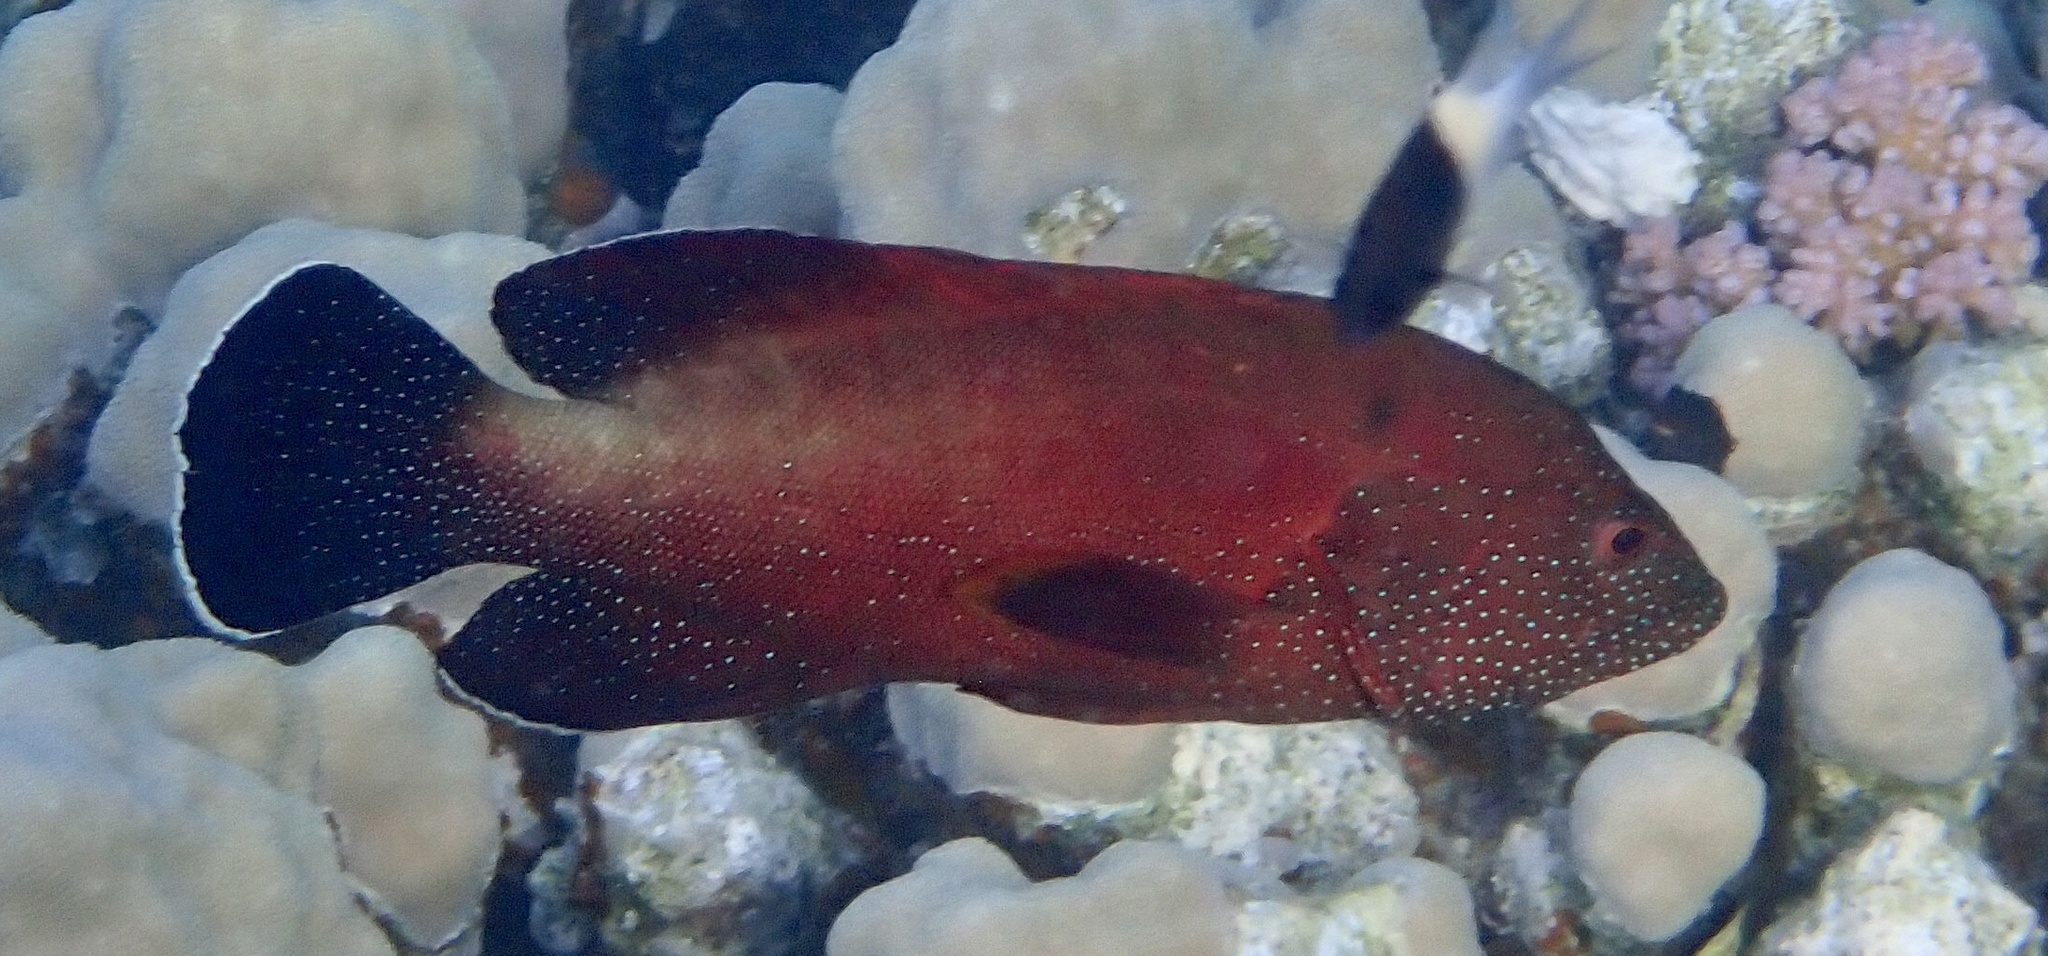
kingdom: Animalia
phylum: Chordata
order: Perciformes
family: Serranidae
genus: Cephalopholis
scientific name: Cephalopholis hemistiktos
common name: Halfspotted hind
